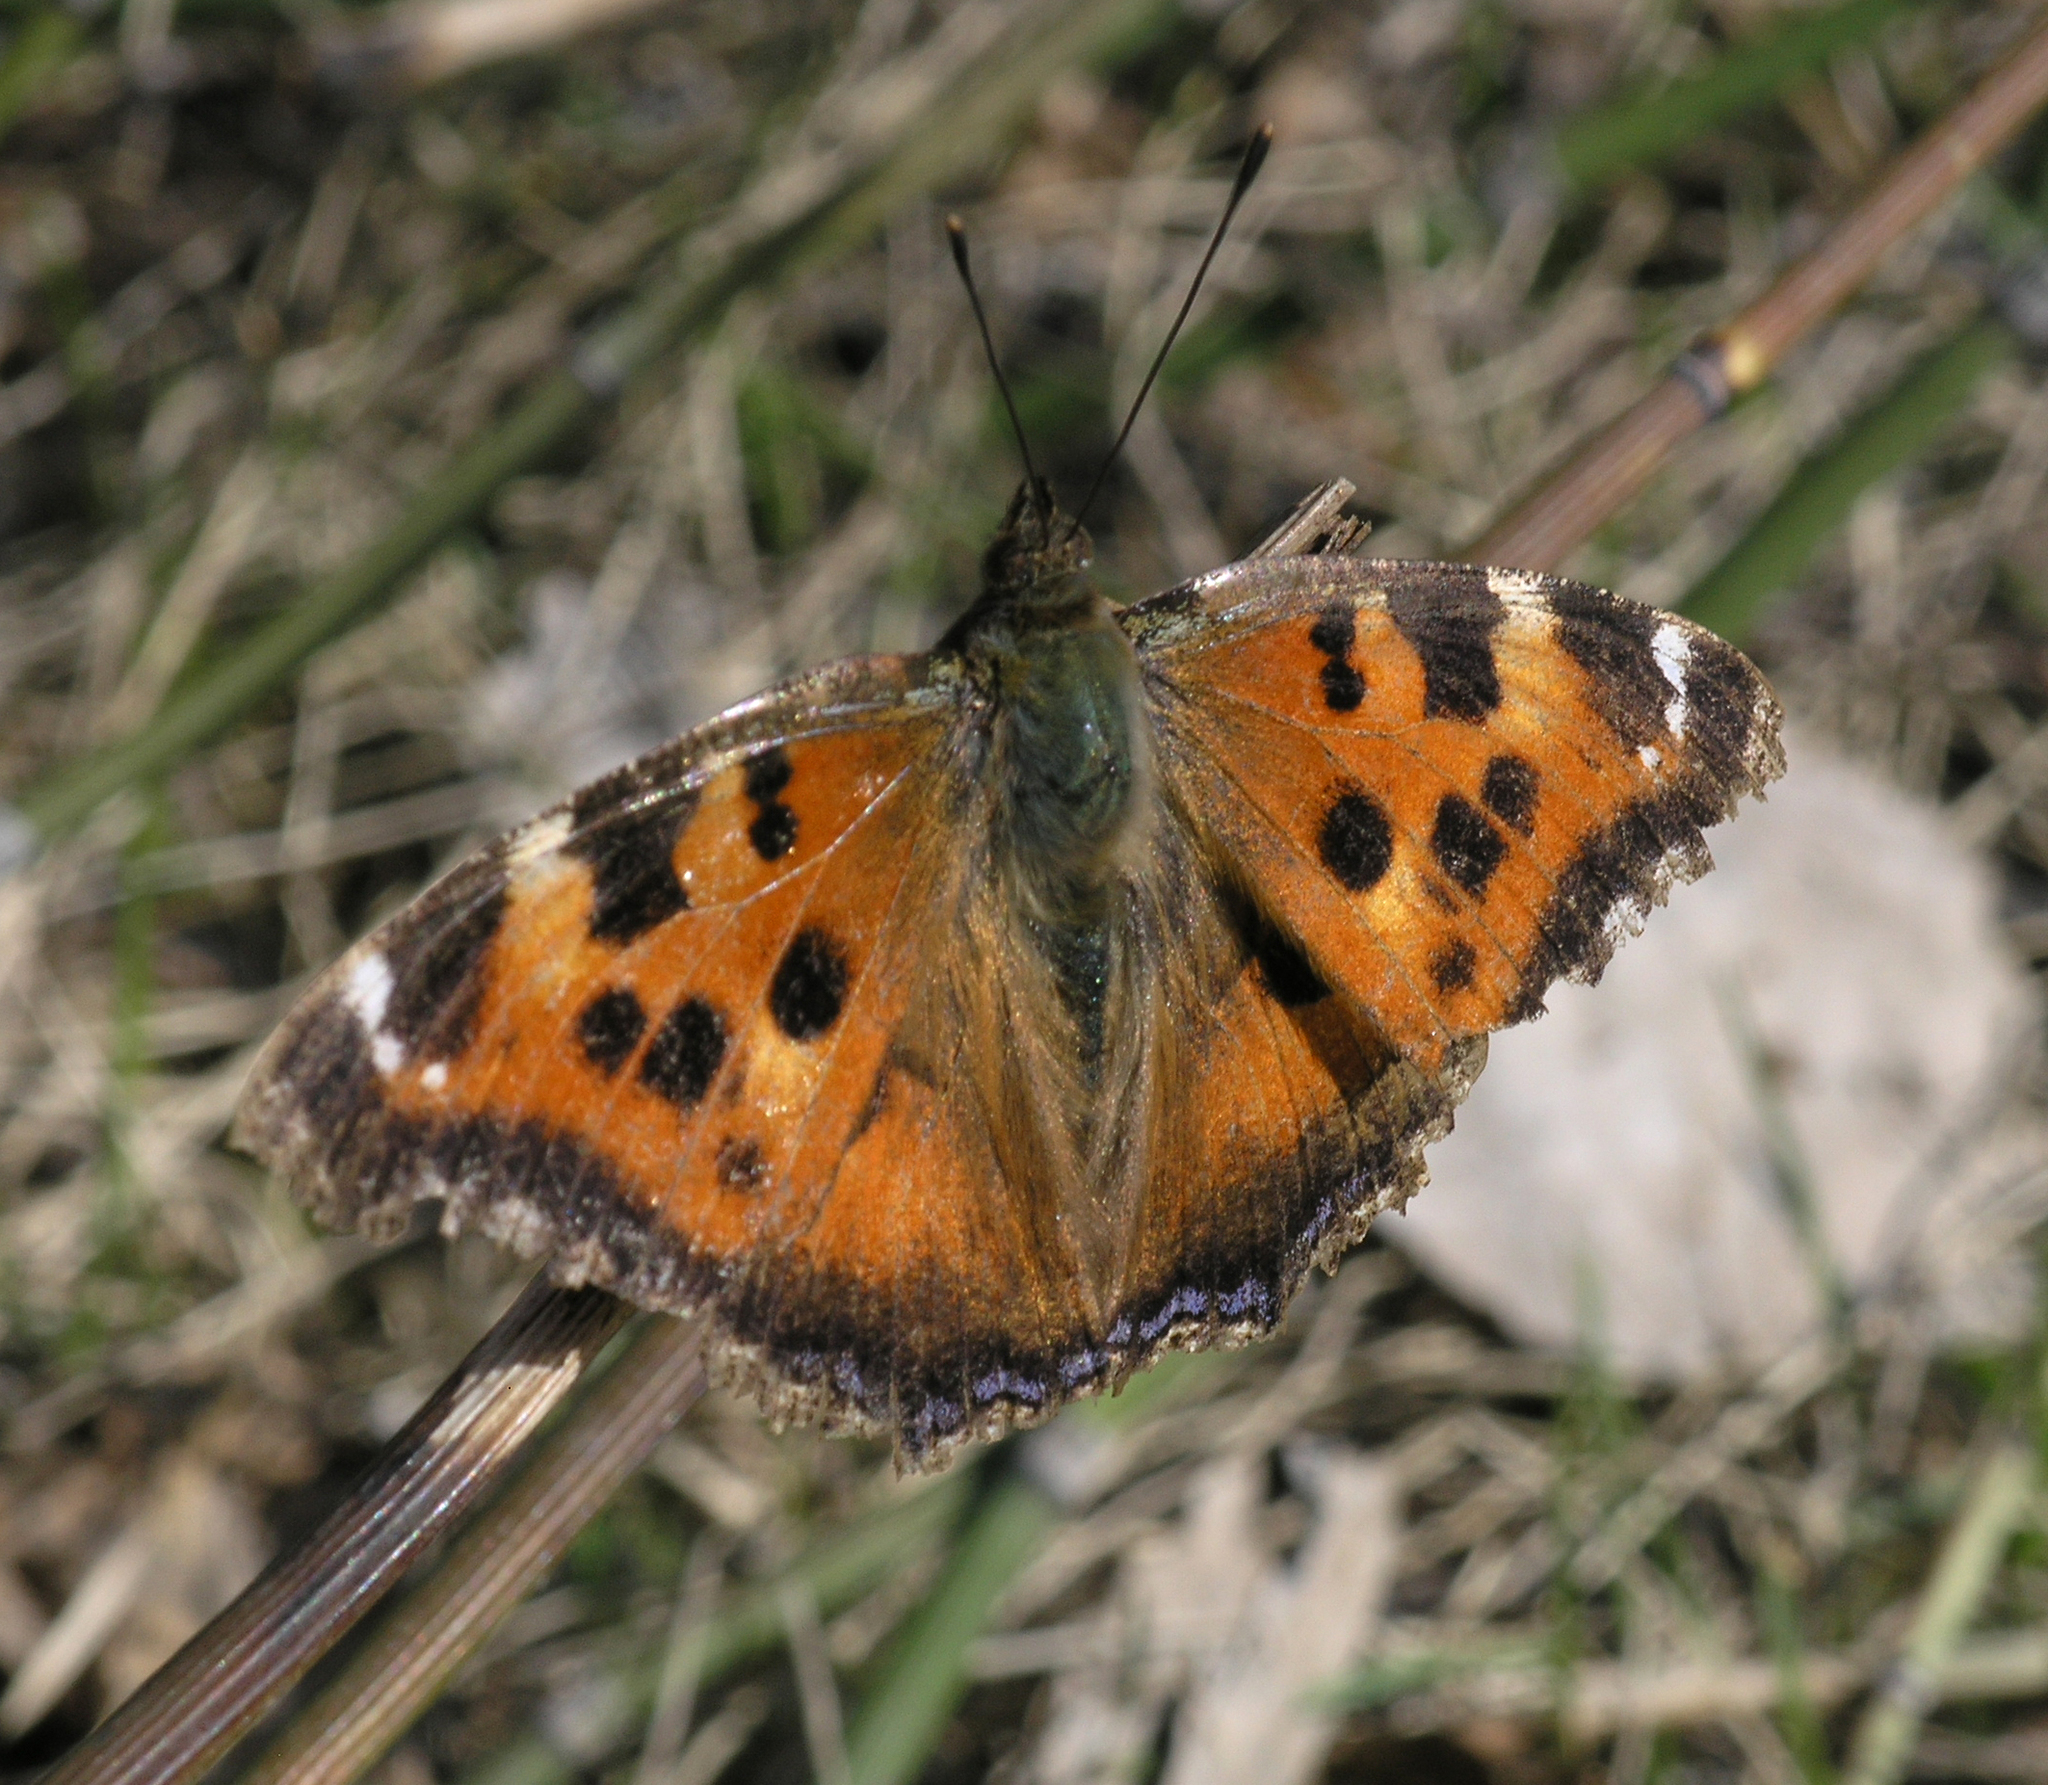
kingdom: Animalia
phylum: Arthropoda
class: Insecta
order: Lepidoptera
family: Nymphalidae
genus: Nymphalis
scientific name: Nymphalis xanthomelas
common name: Scarce tortoiseshell
